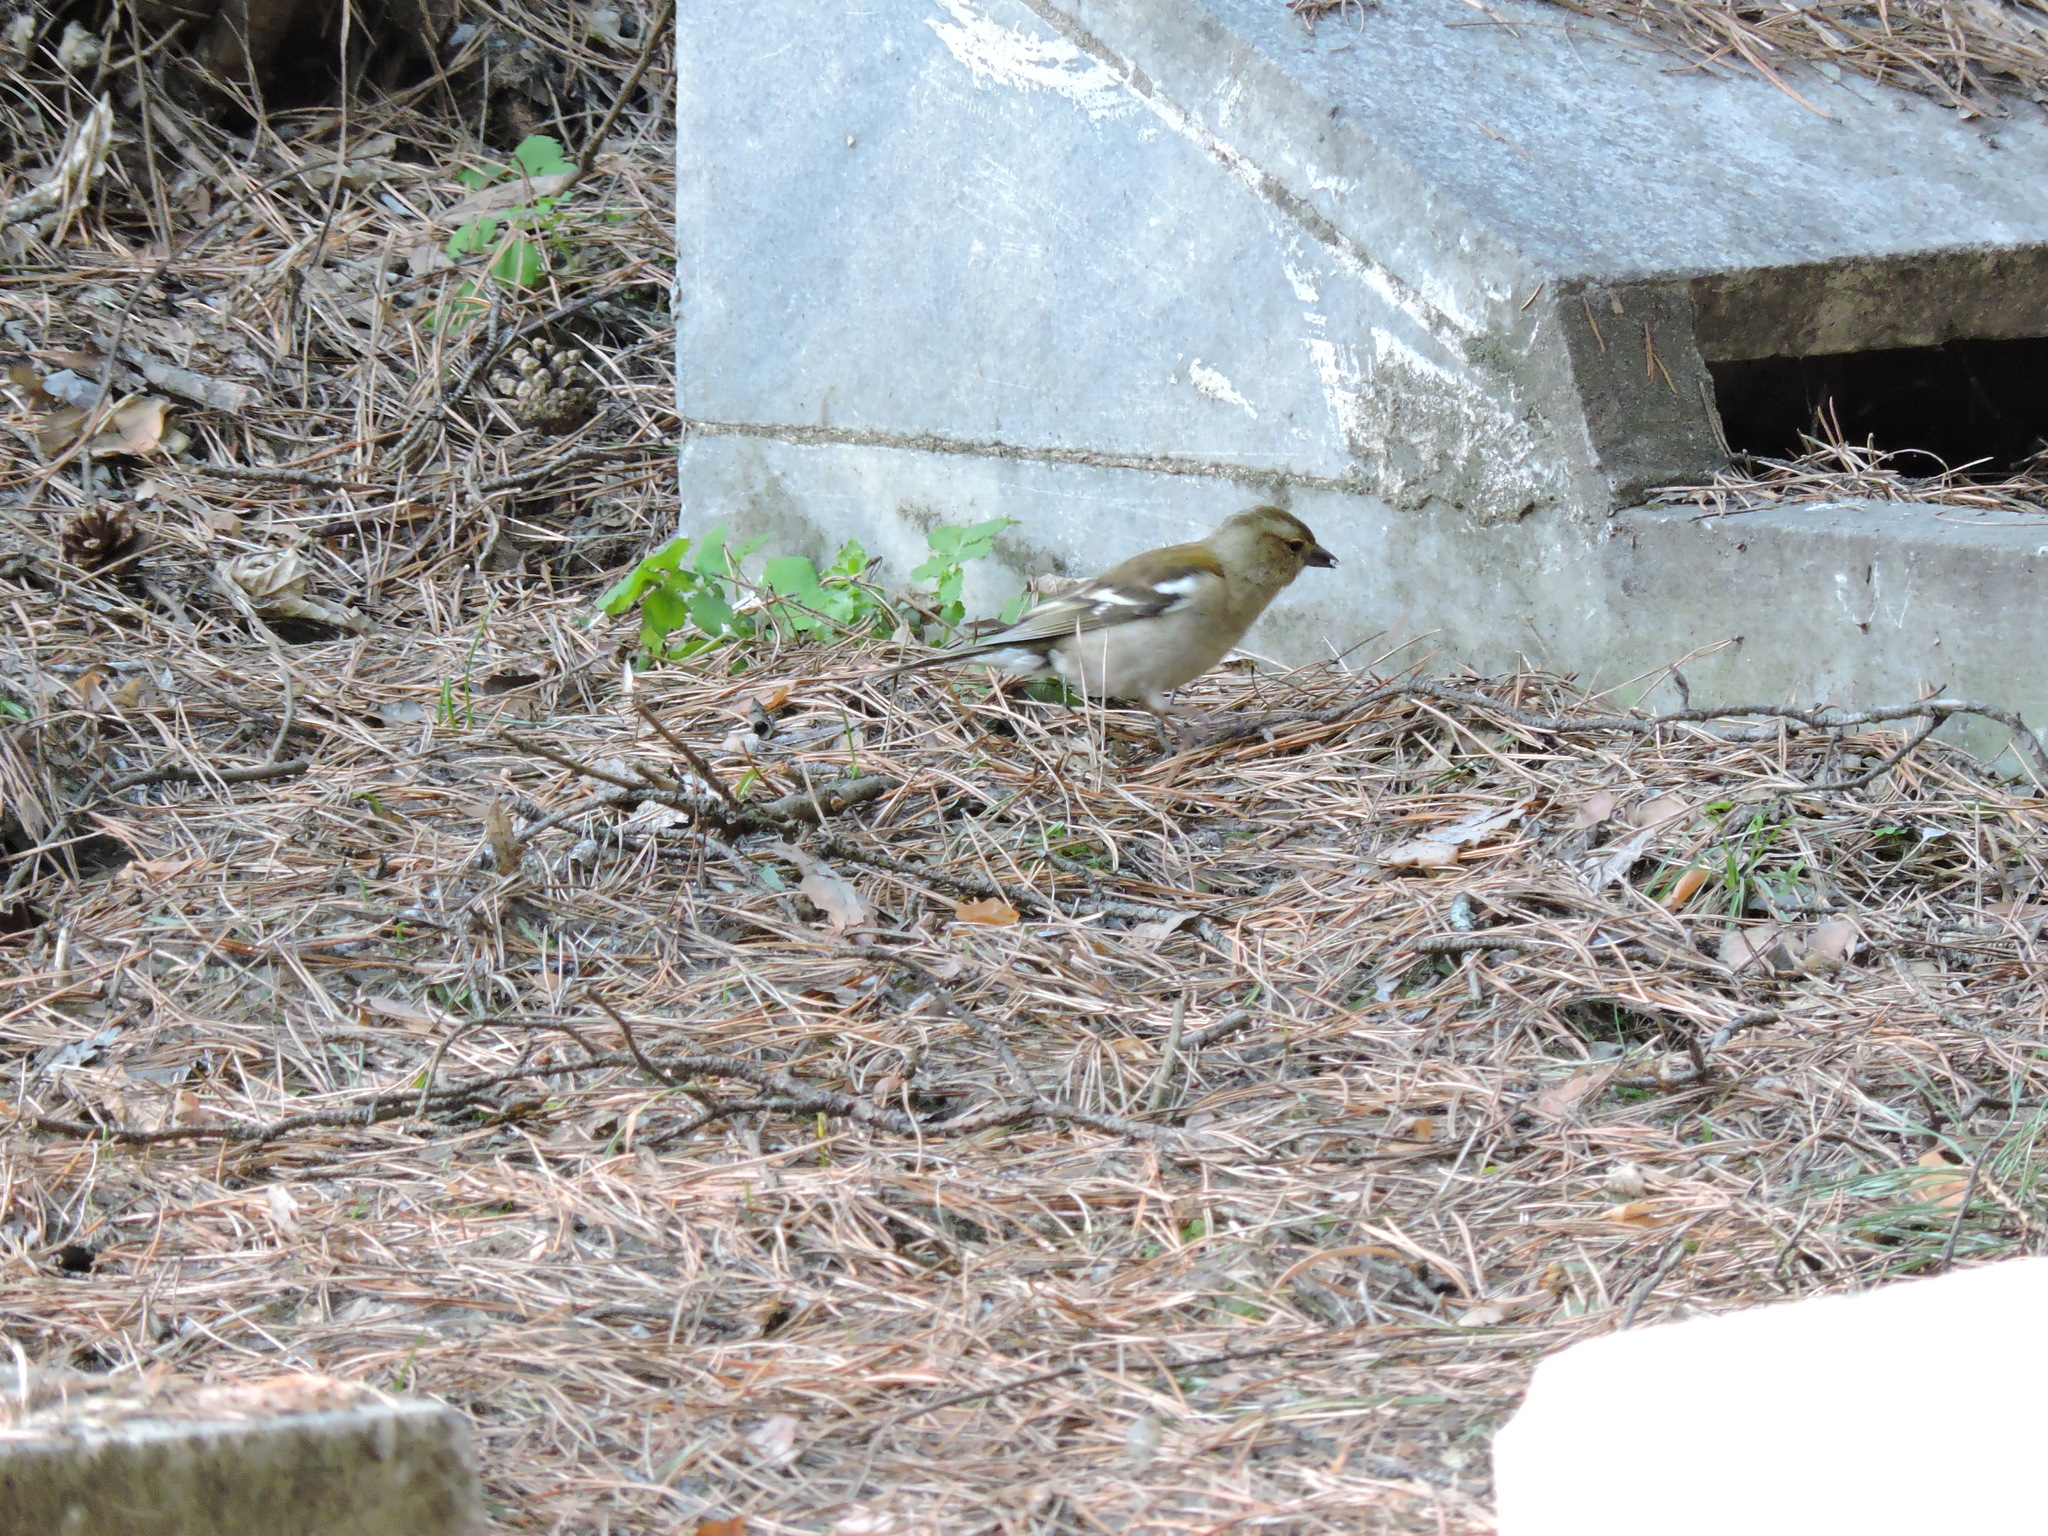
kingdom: Animalia
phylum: Chordata
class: Aves
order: Passeriformes
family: Fringillidae
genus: Fringilla
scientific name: Fringilla coelebs
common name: Common chaffinch
